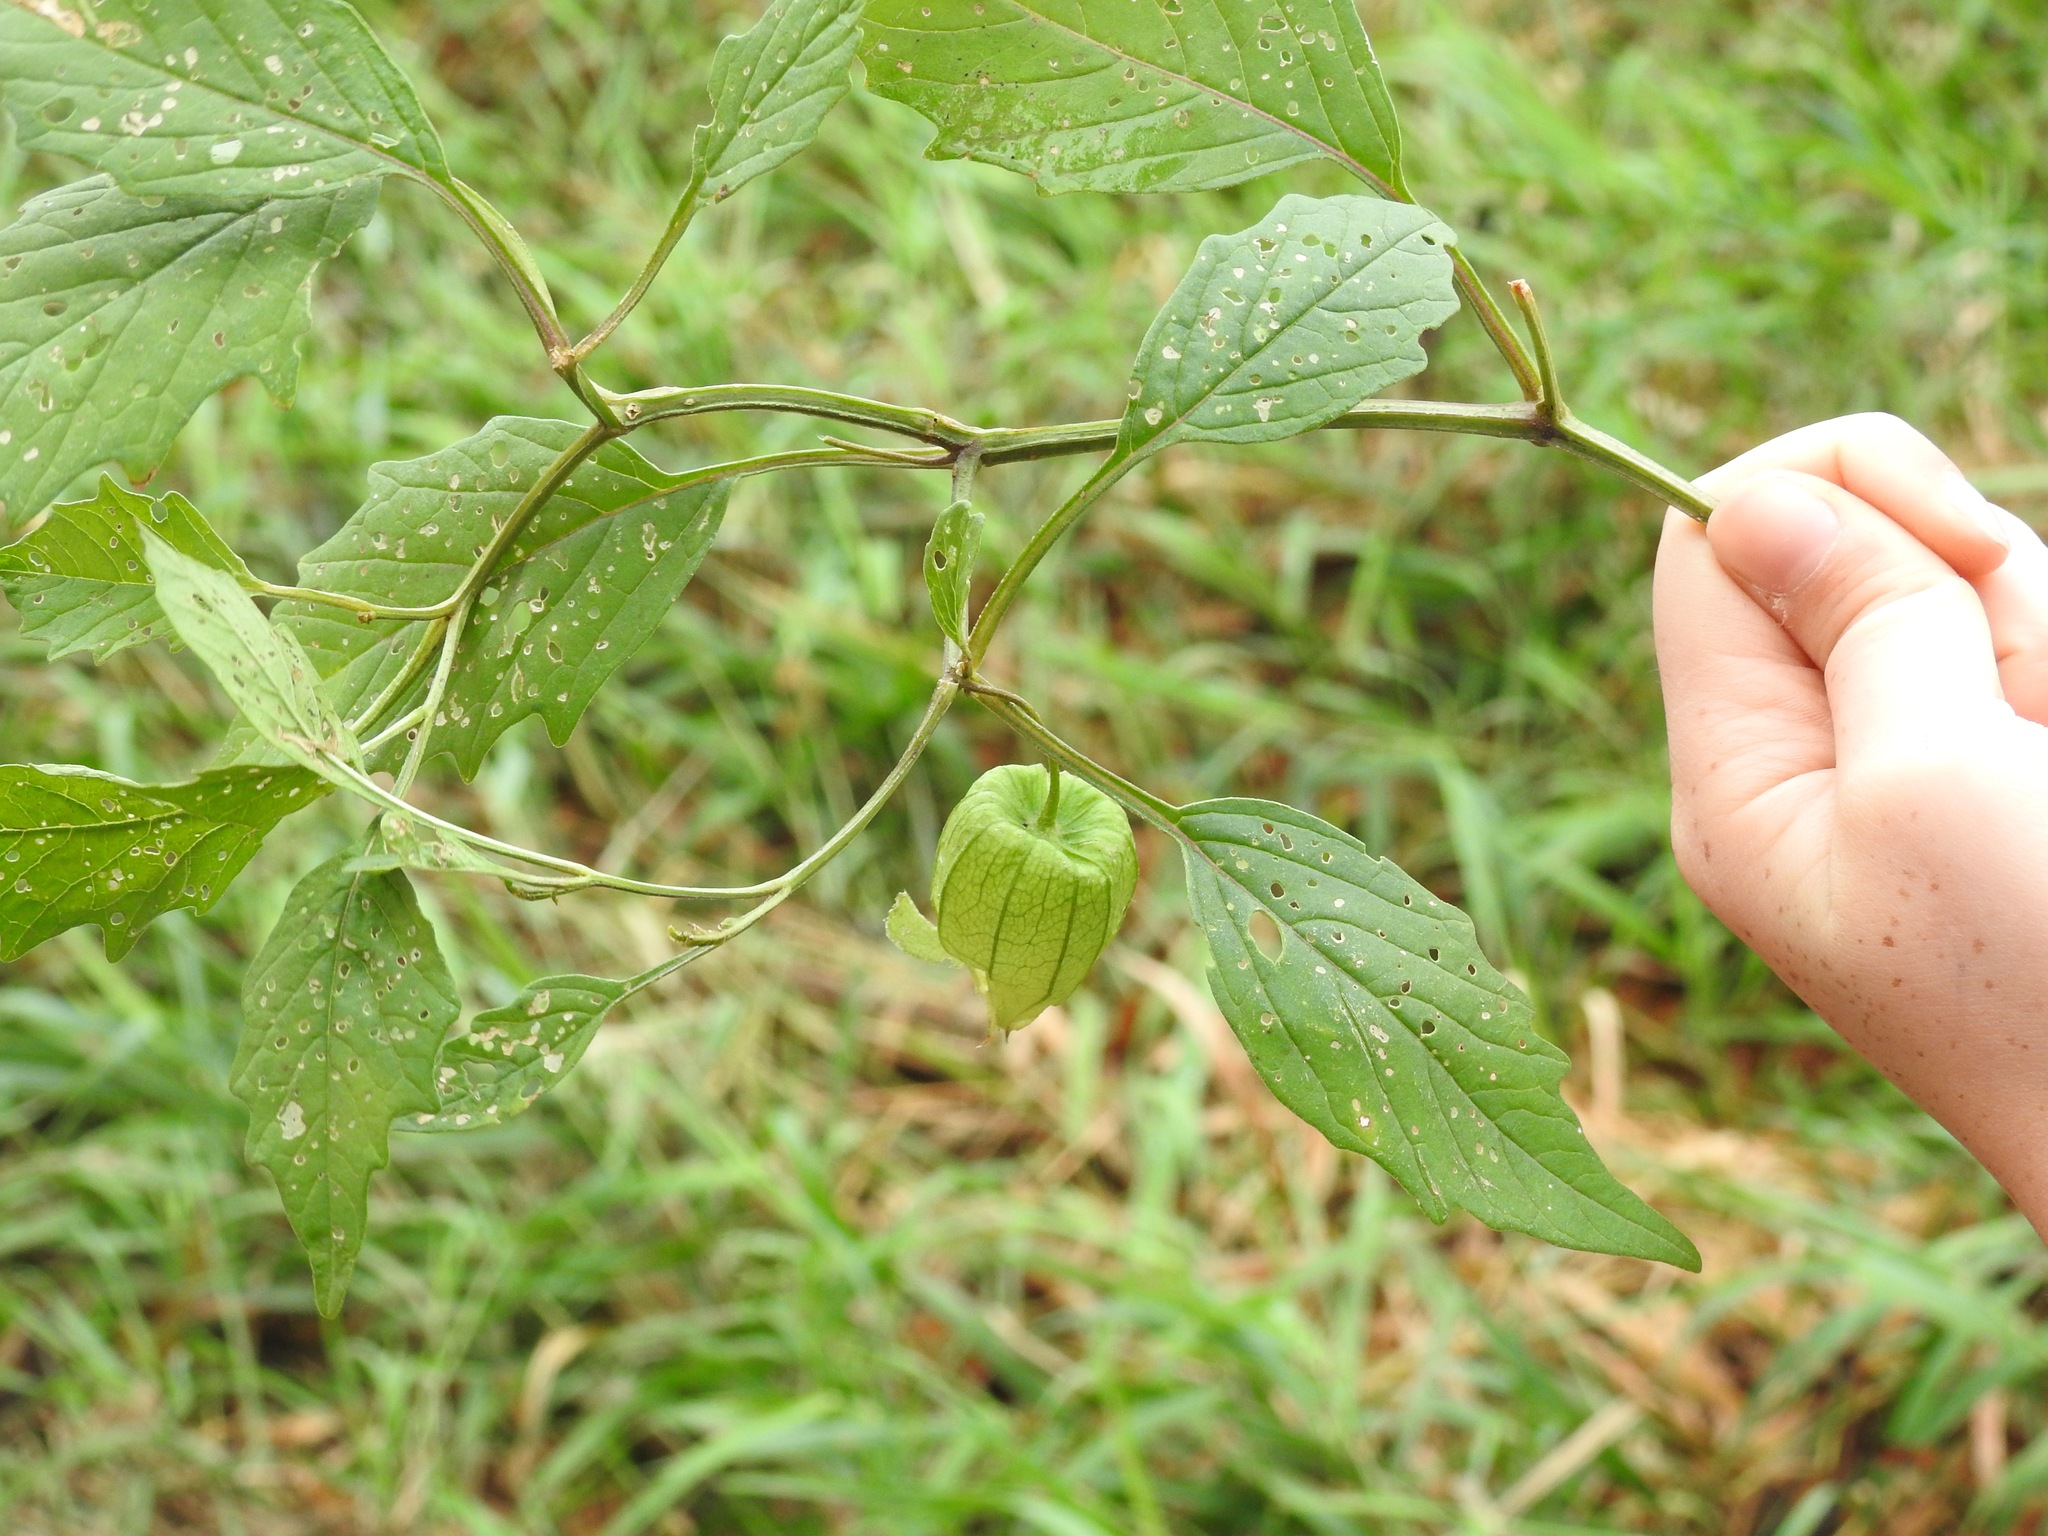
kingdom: Plantae
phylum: Tracheophyta
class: Magnoliopsida
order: Solanales
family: Solanaceae
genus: Physalis
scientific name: Physalis longifolia
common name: Common ground-cherry
